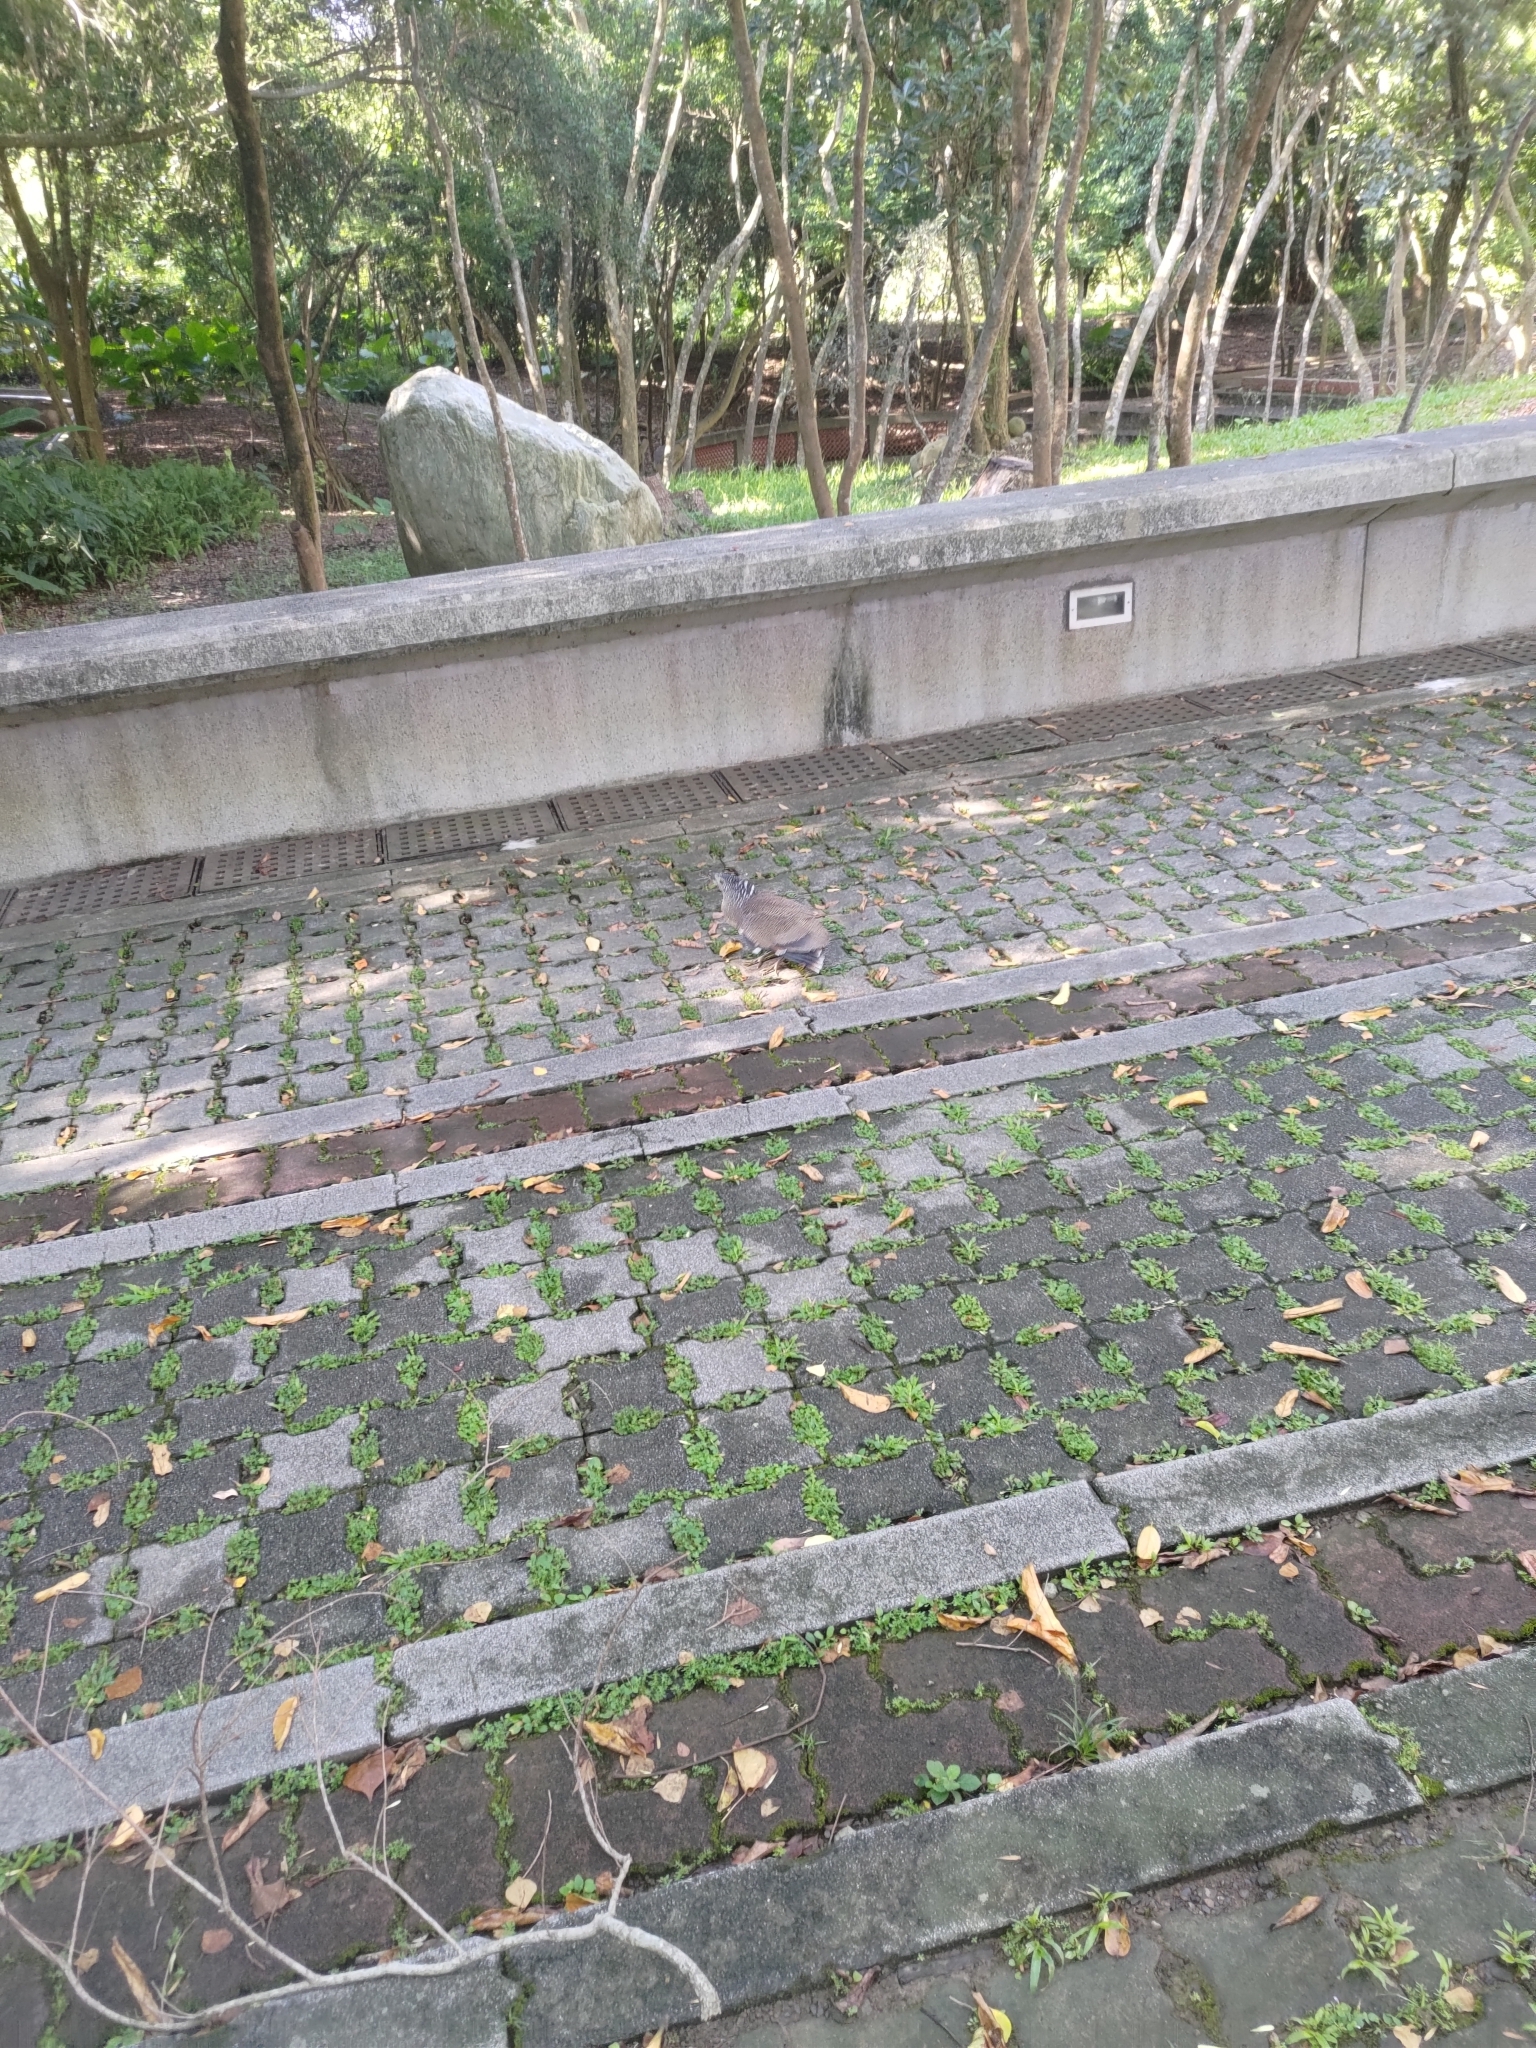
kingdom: Animalia
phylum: Chordata
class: Aves
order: Pelecaniformes
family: Ardeidae
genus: Gorsachius
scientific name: Gorsachius melanolophus
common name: Malayan night heron
